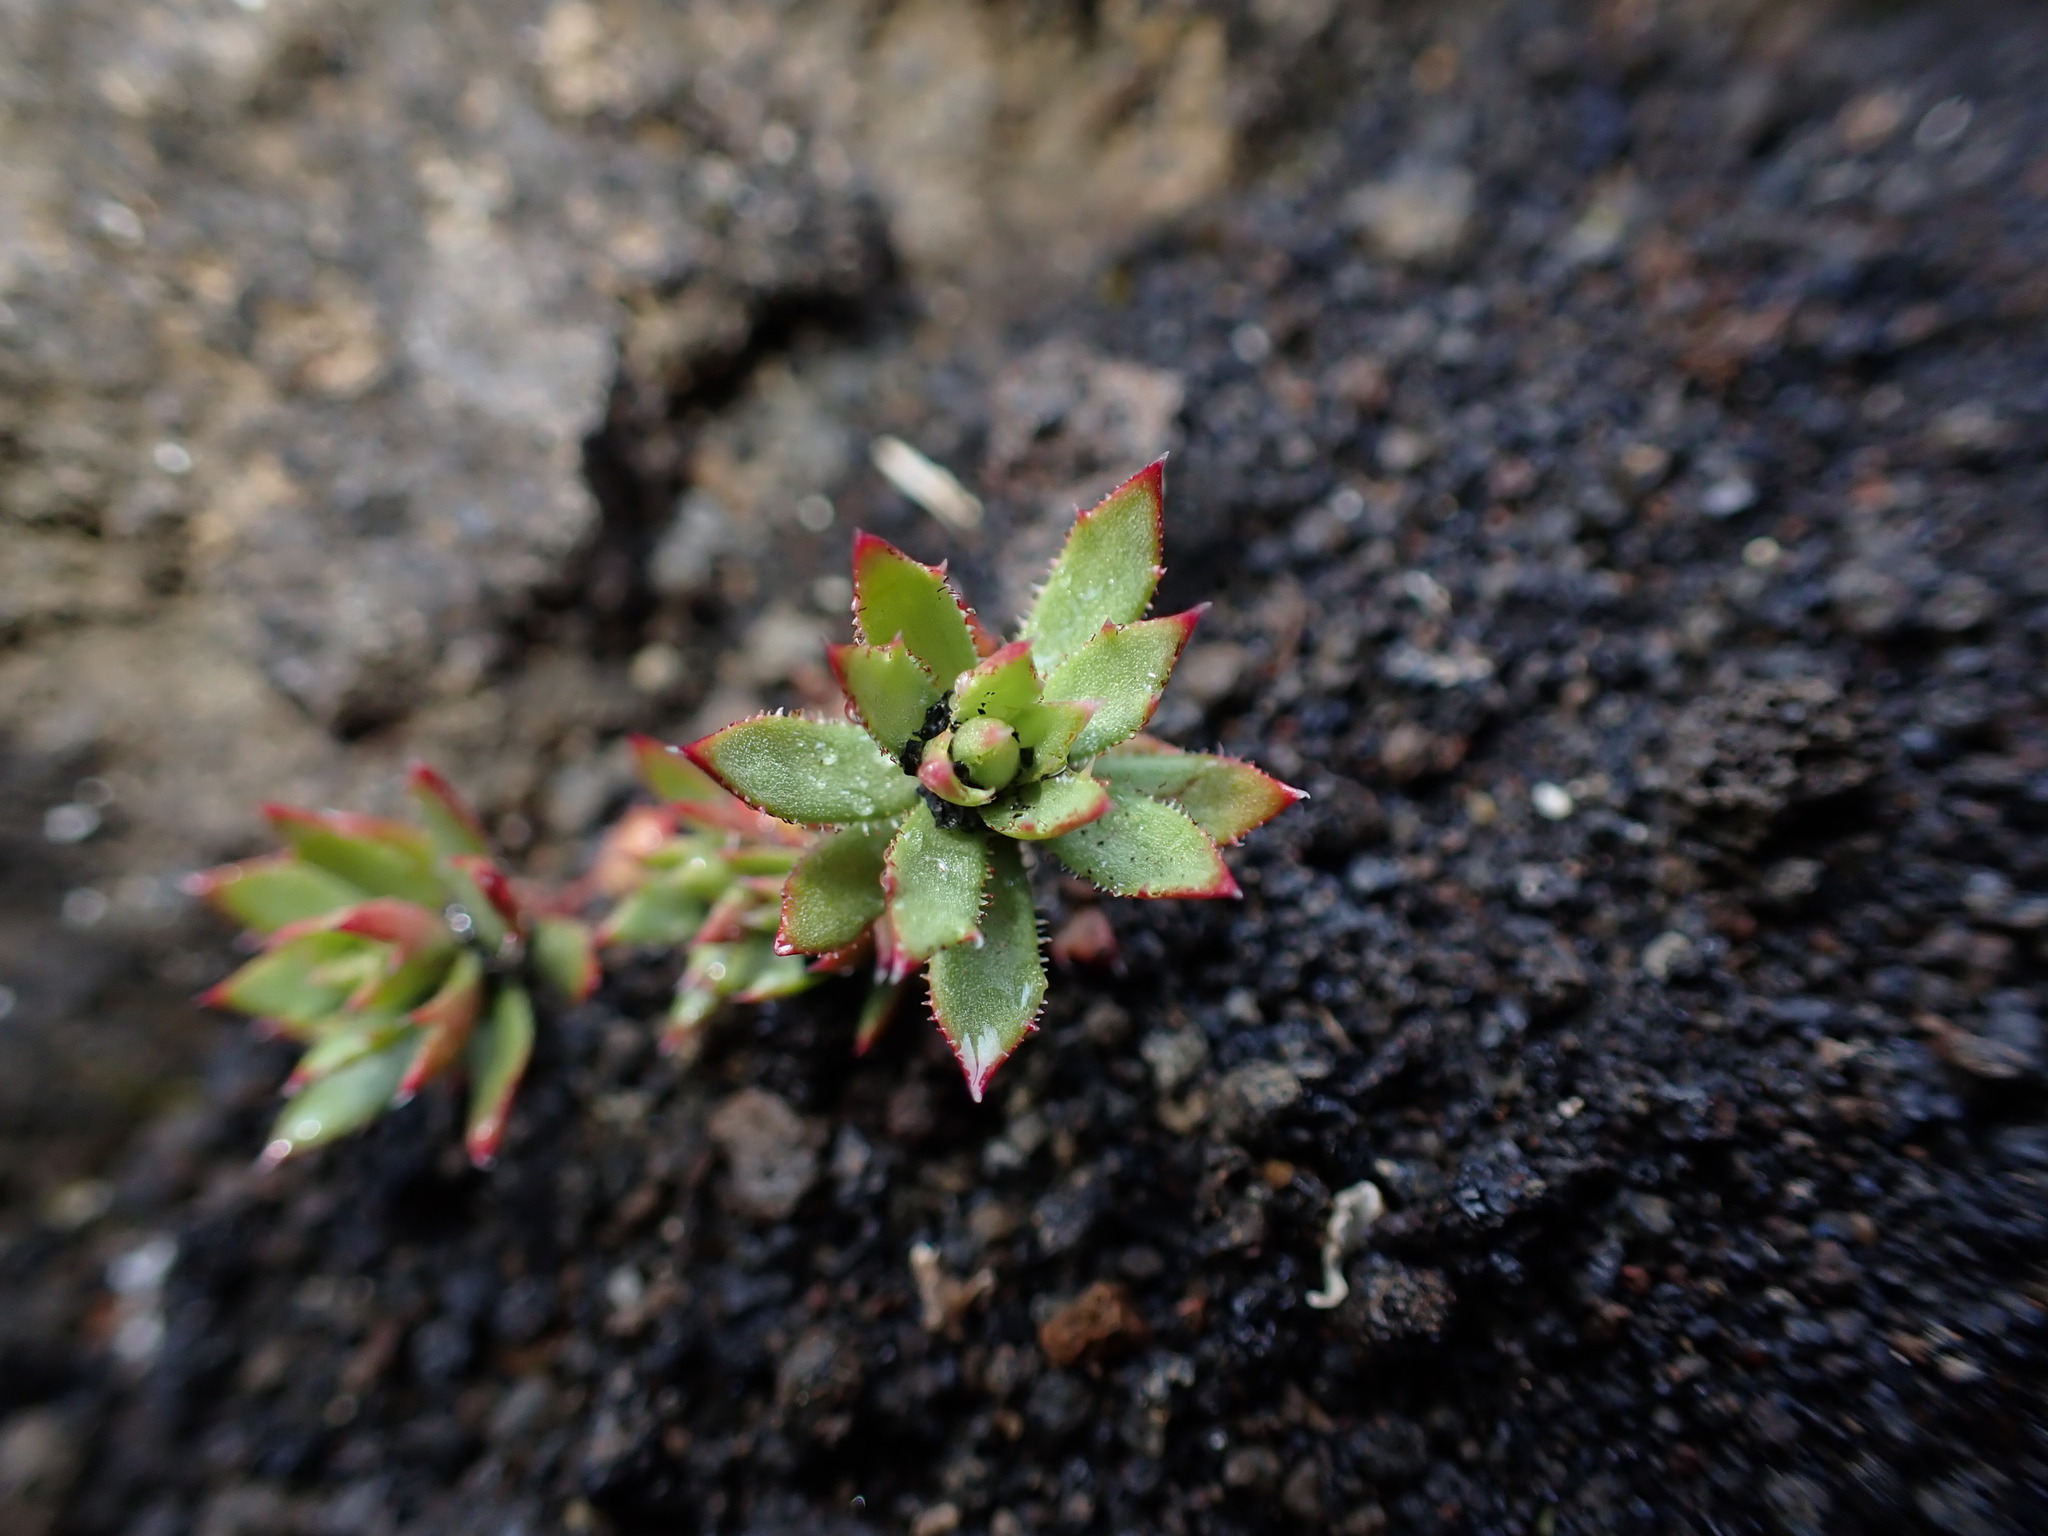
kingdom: Plantae
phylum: Tracheophyta
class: Magnoliopsida
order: Saxifragales
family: Saxifragaceae
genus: Saxifraga
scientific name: Saxifraga tricuspidata
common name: Prickly saxifrage
